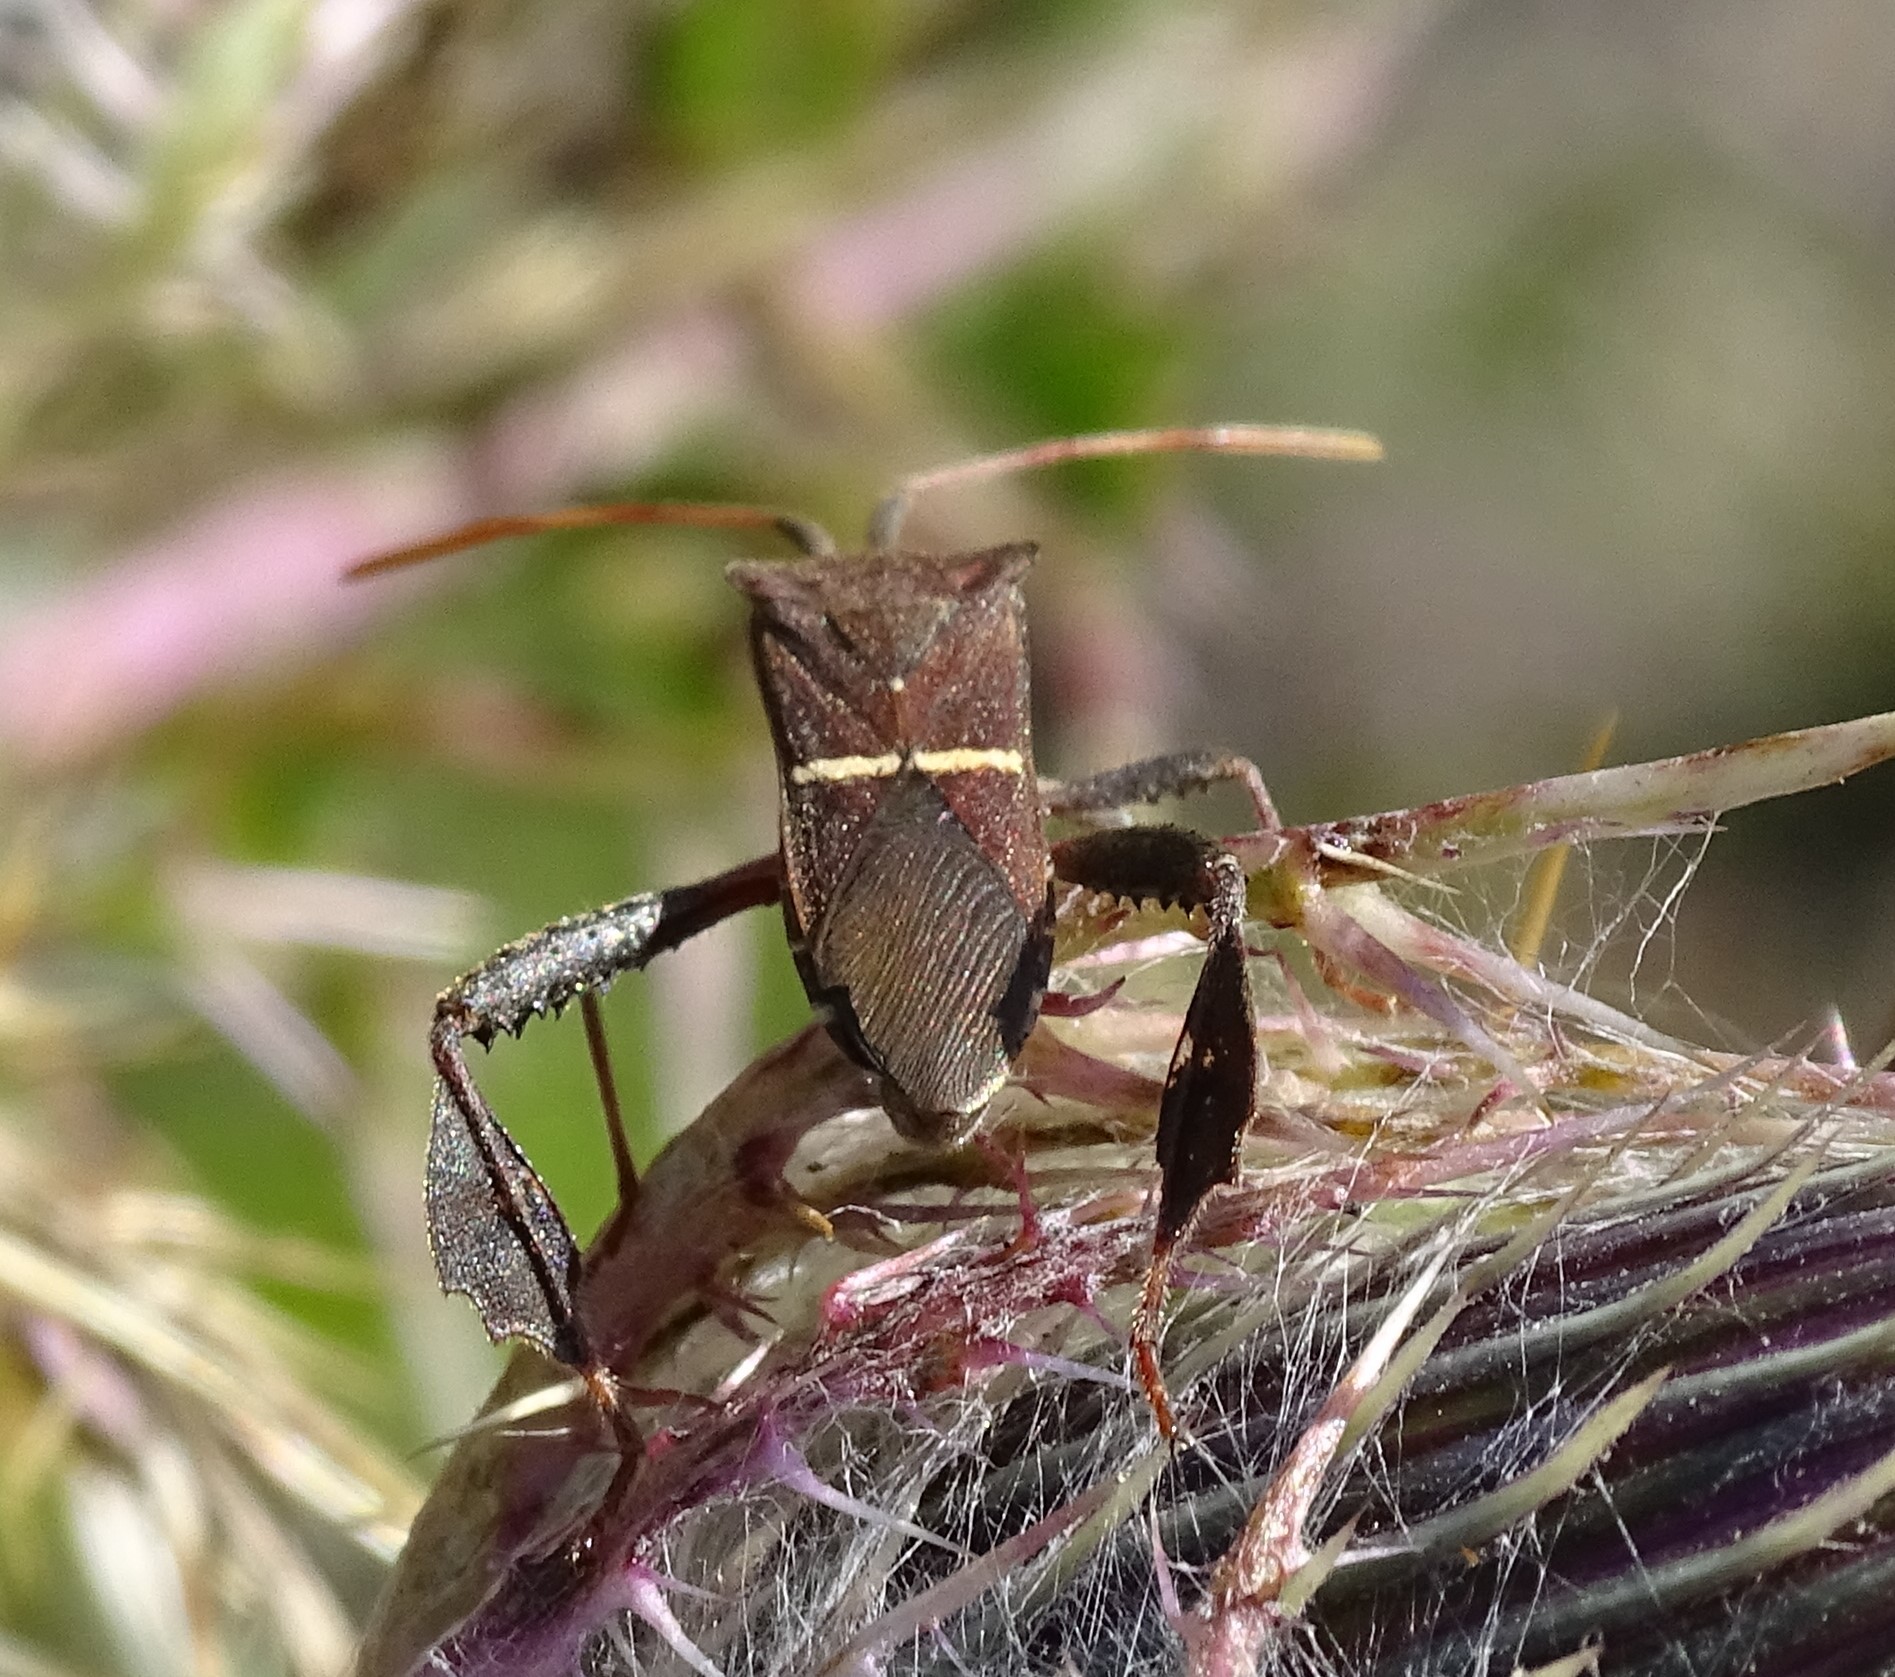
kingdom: Animalia
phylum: Arthropoda
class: Insecta
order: Hemiptera
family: Coreidae
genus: Leptoglossus
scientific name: Leptoglossus phyllopus
